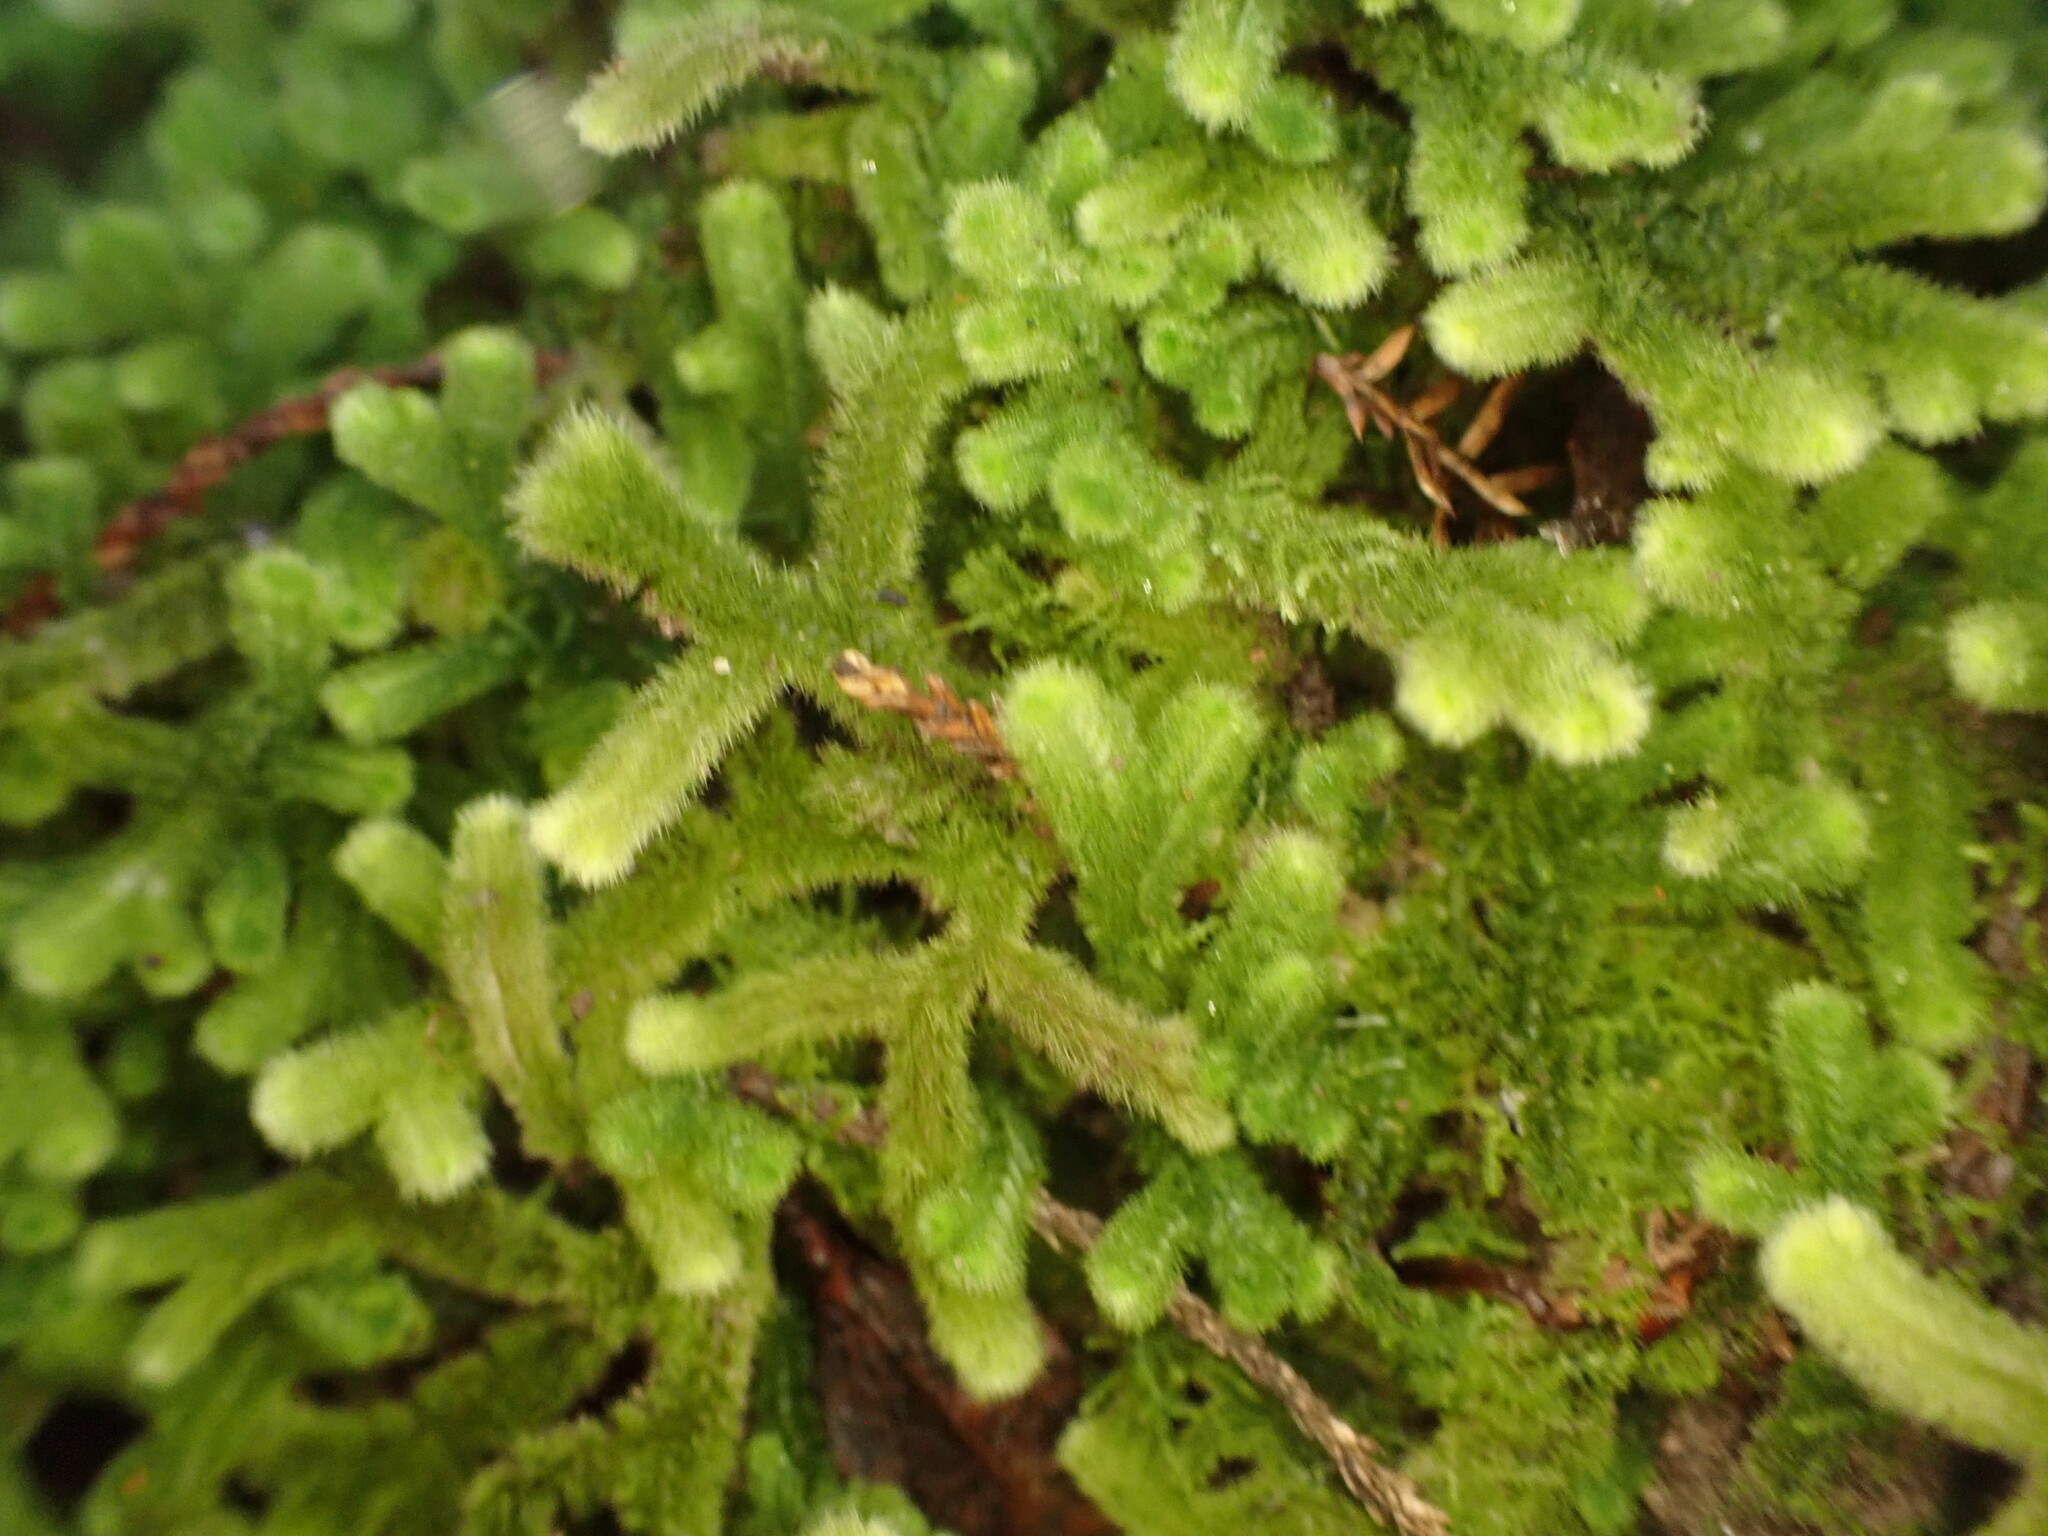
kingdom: Plantae
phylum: Marchantiophyta
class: Jungermanniopsida
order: Jungermanniales
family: Trichocoleaceae
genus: Leiomitra
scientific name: Leiomitra lanata
